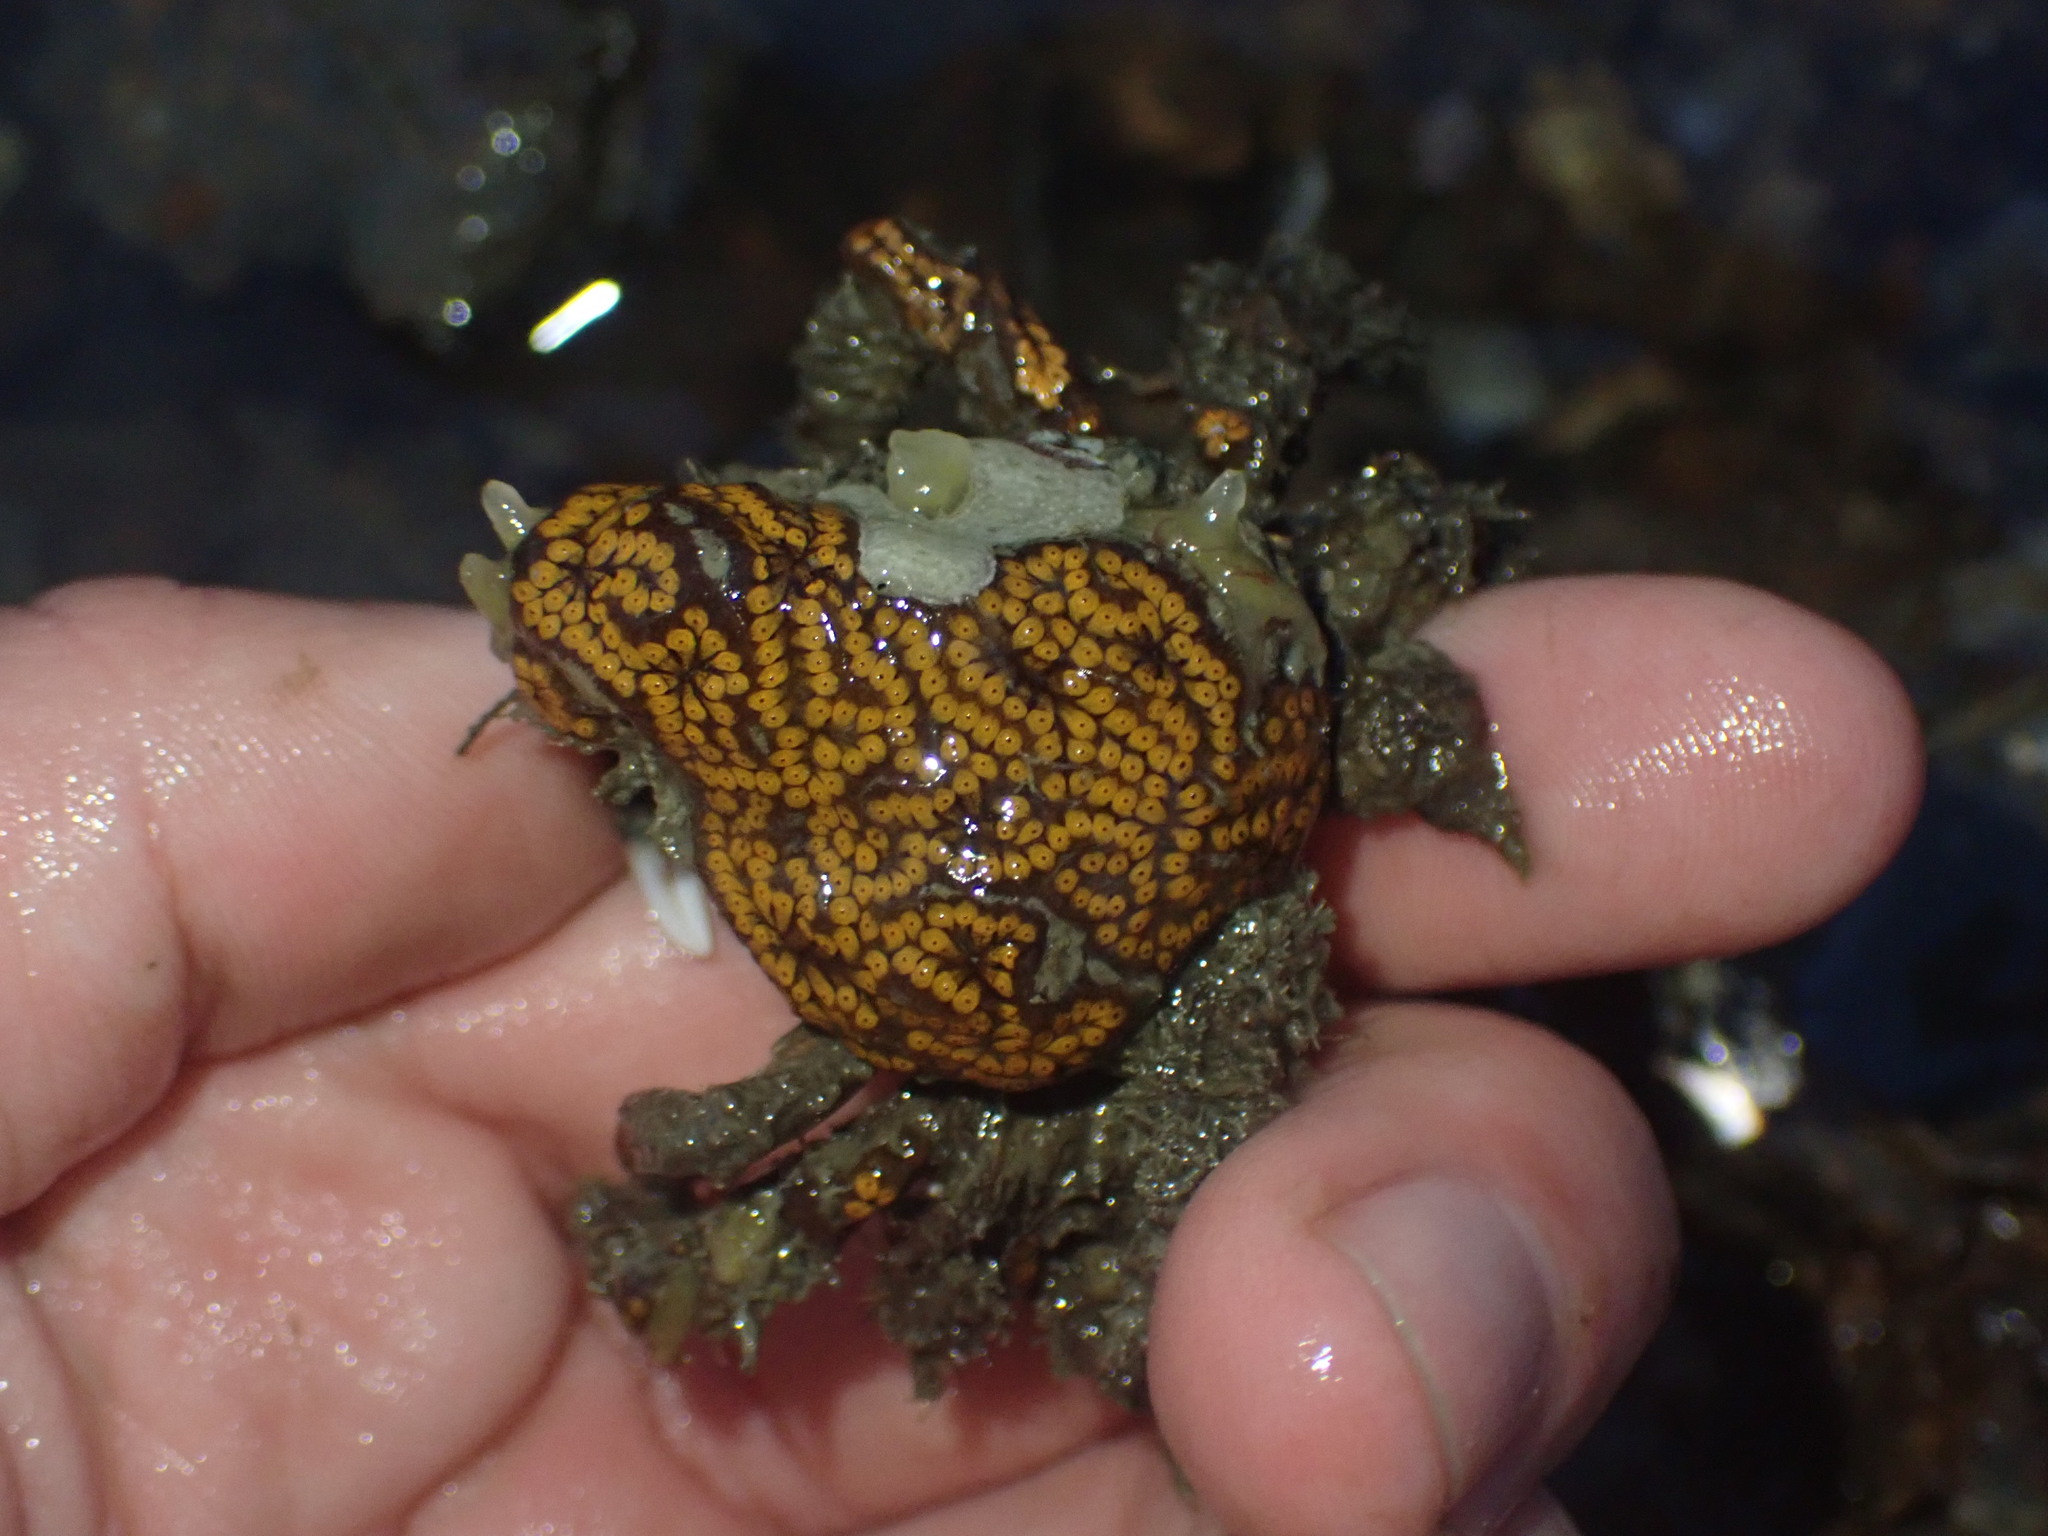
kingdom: Animalia
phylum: Chordata
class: Ascidiacea
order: Stolidobranchia
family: Styelidae
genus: Botrylloides
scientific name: Botrylloides diegensis
